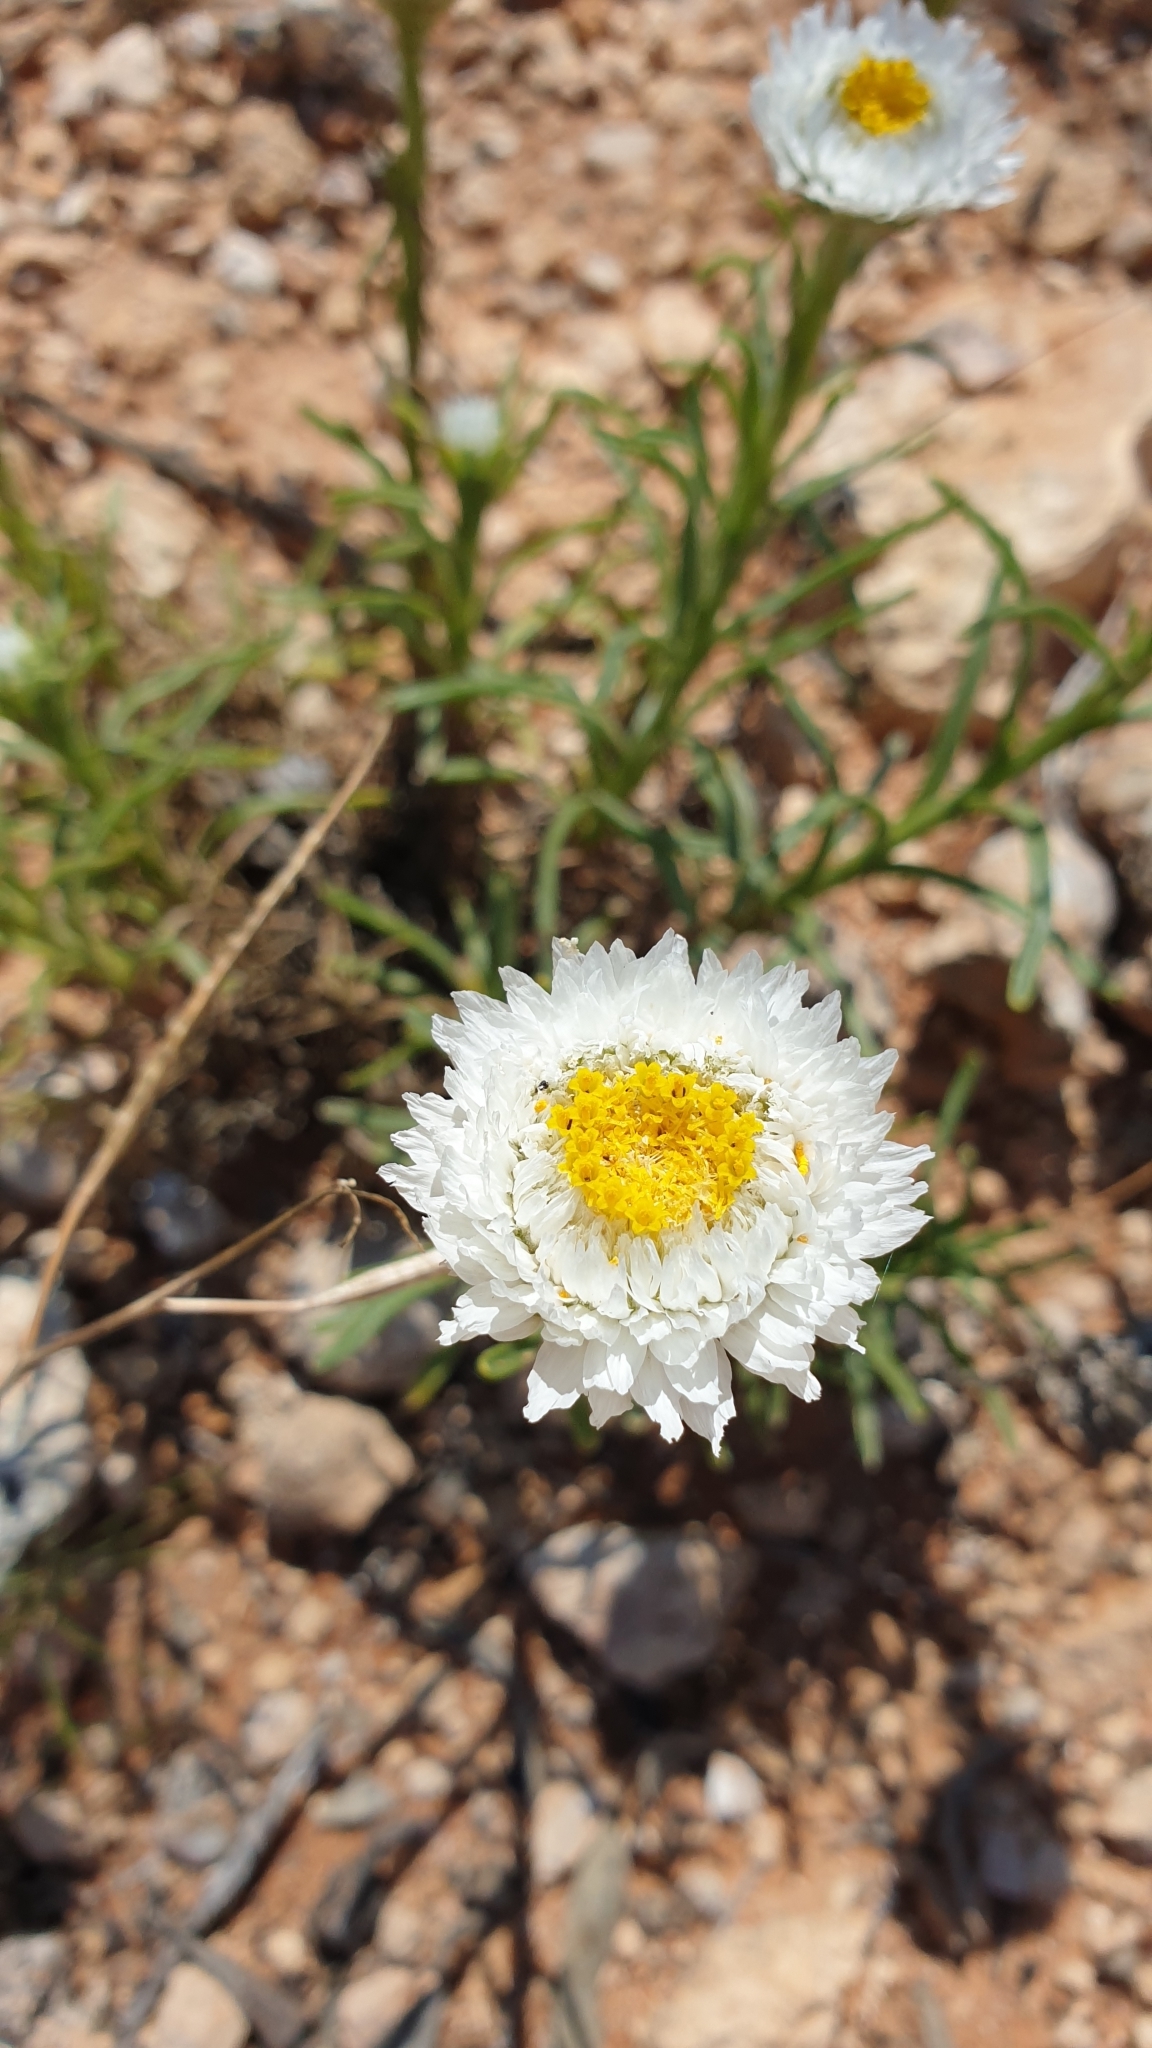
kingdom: Plantae
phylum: Tracheophyta
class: Magnoliopsida
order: Asterales
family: Asteraceae
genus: Polycalymma
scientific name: Polycalymma stuartii
